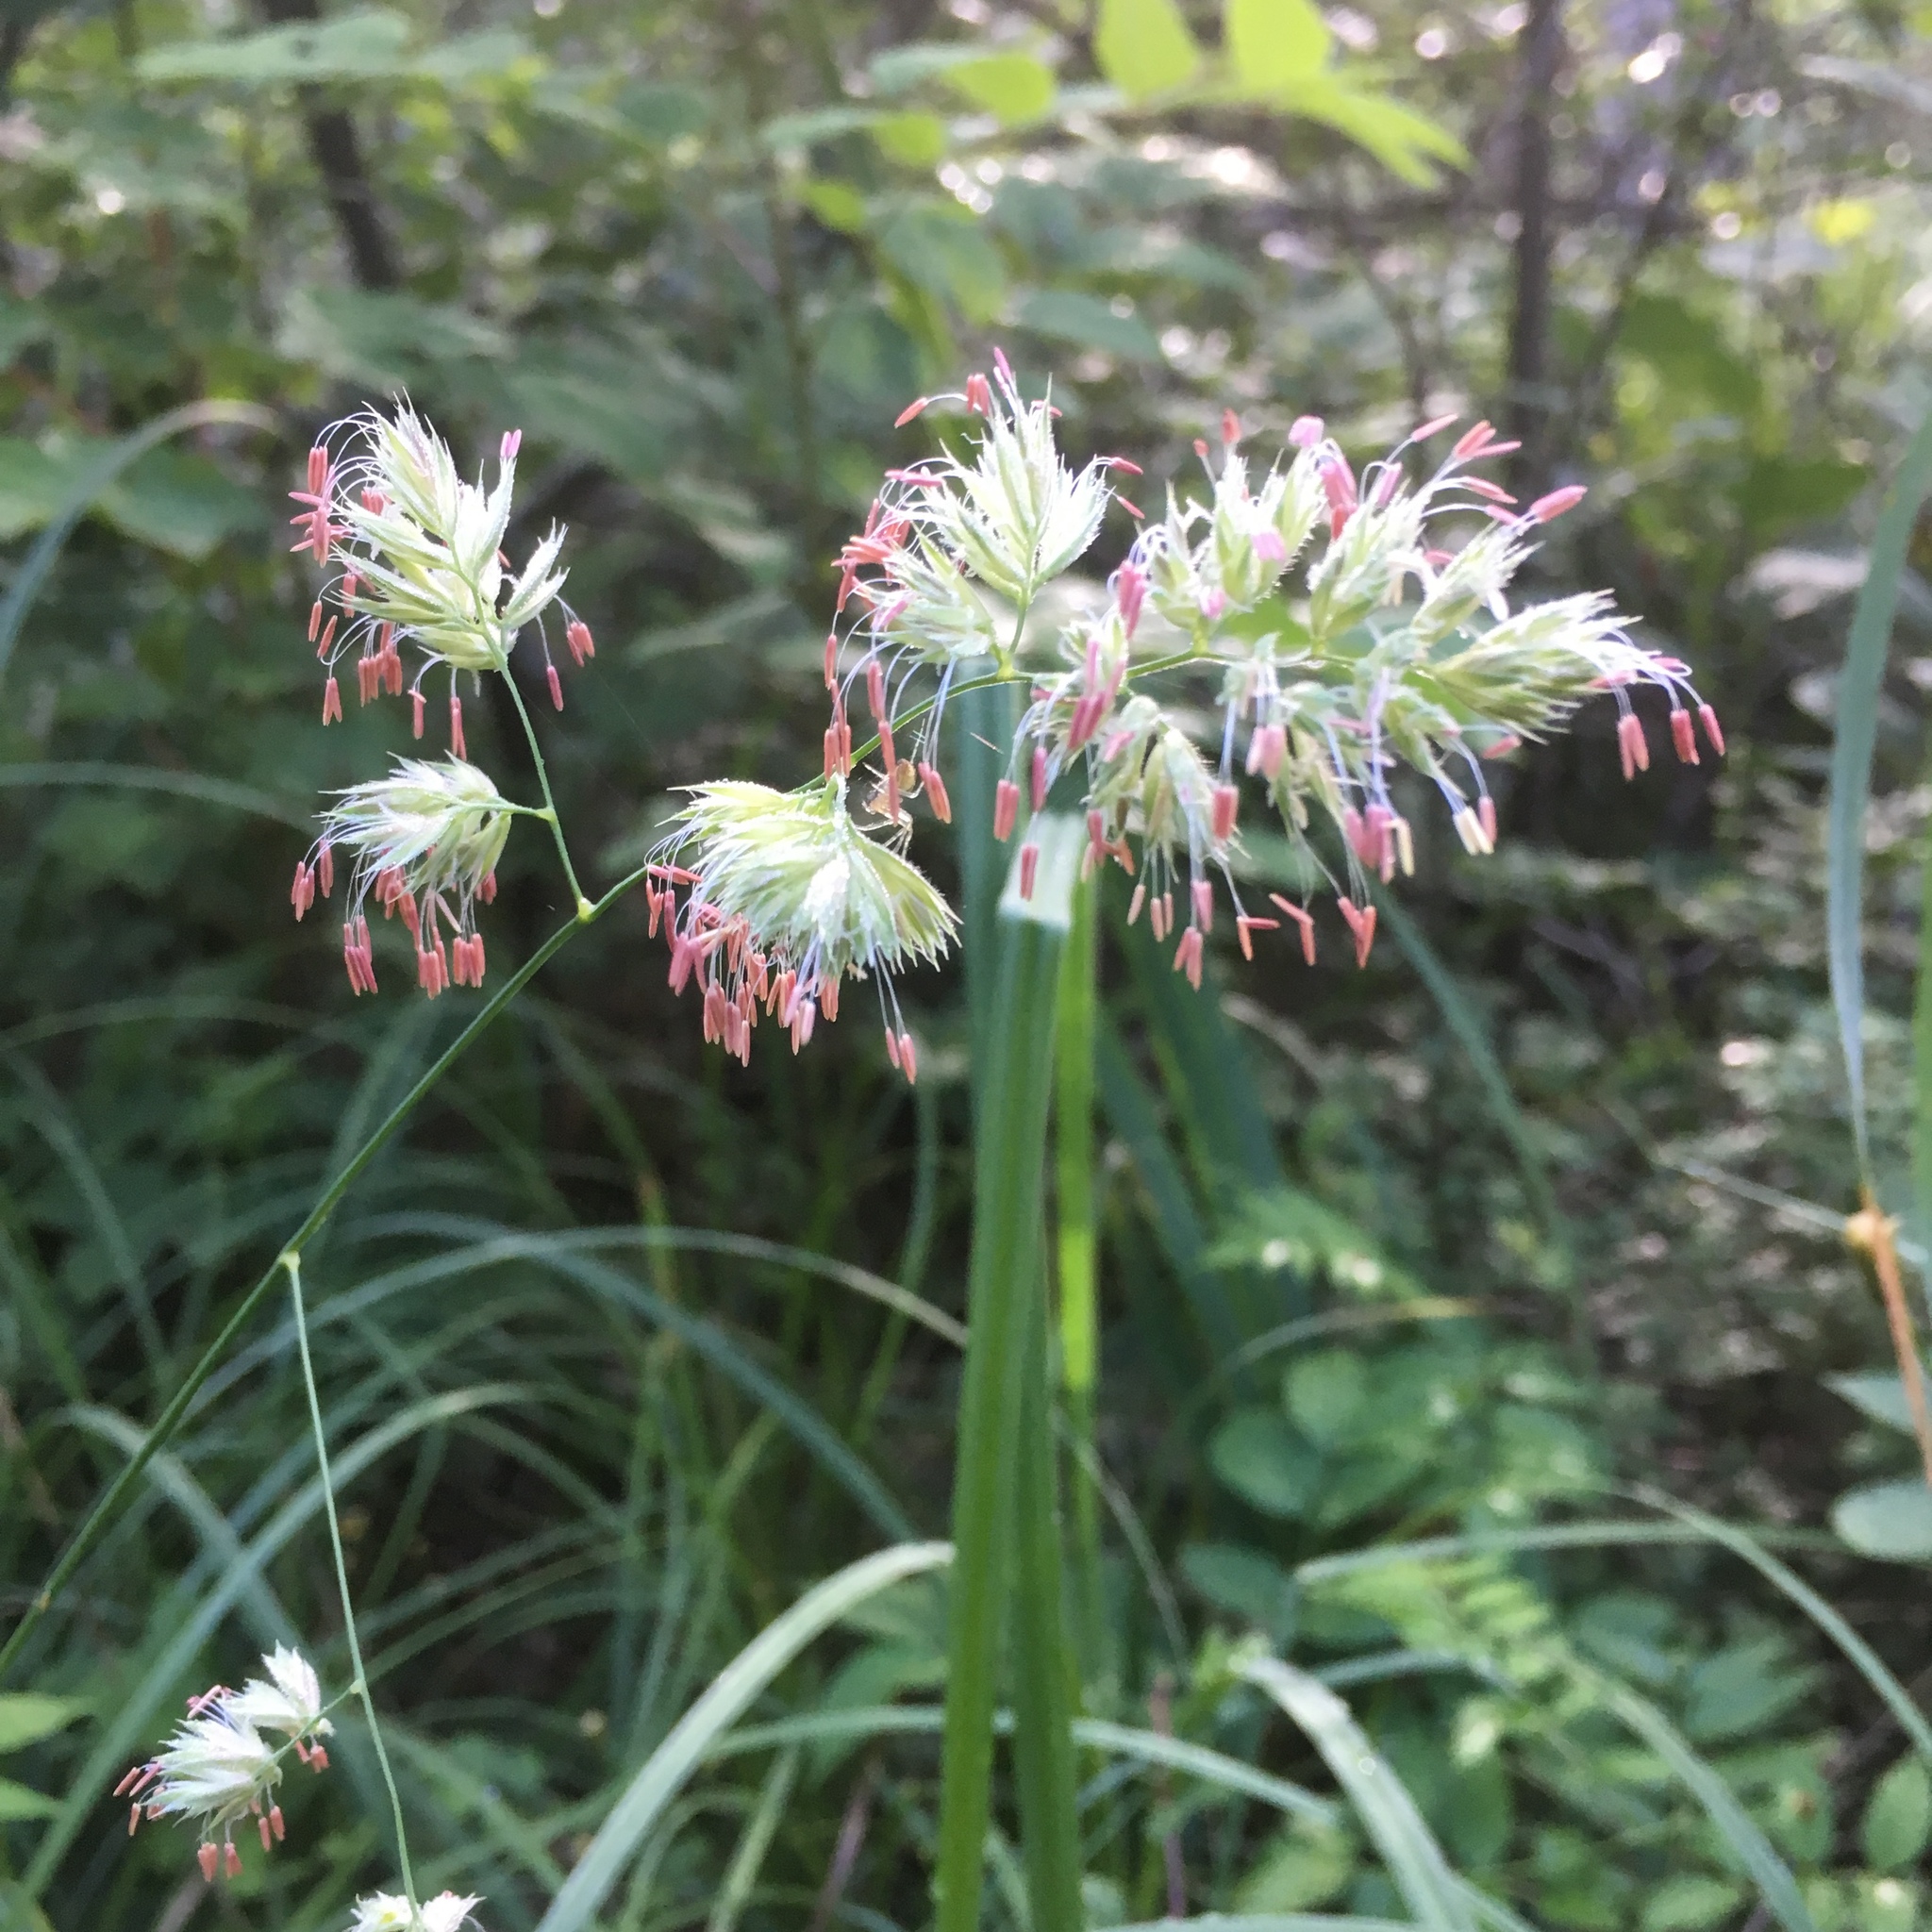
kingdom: Plantae
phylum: Tracheophyta
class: Liliopsida
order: Poales
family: Poaceae
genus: Dactylis
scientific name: Dactylis glomerata
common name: Orchardgrass
